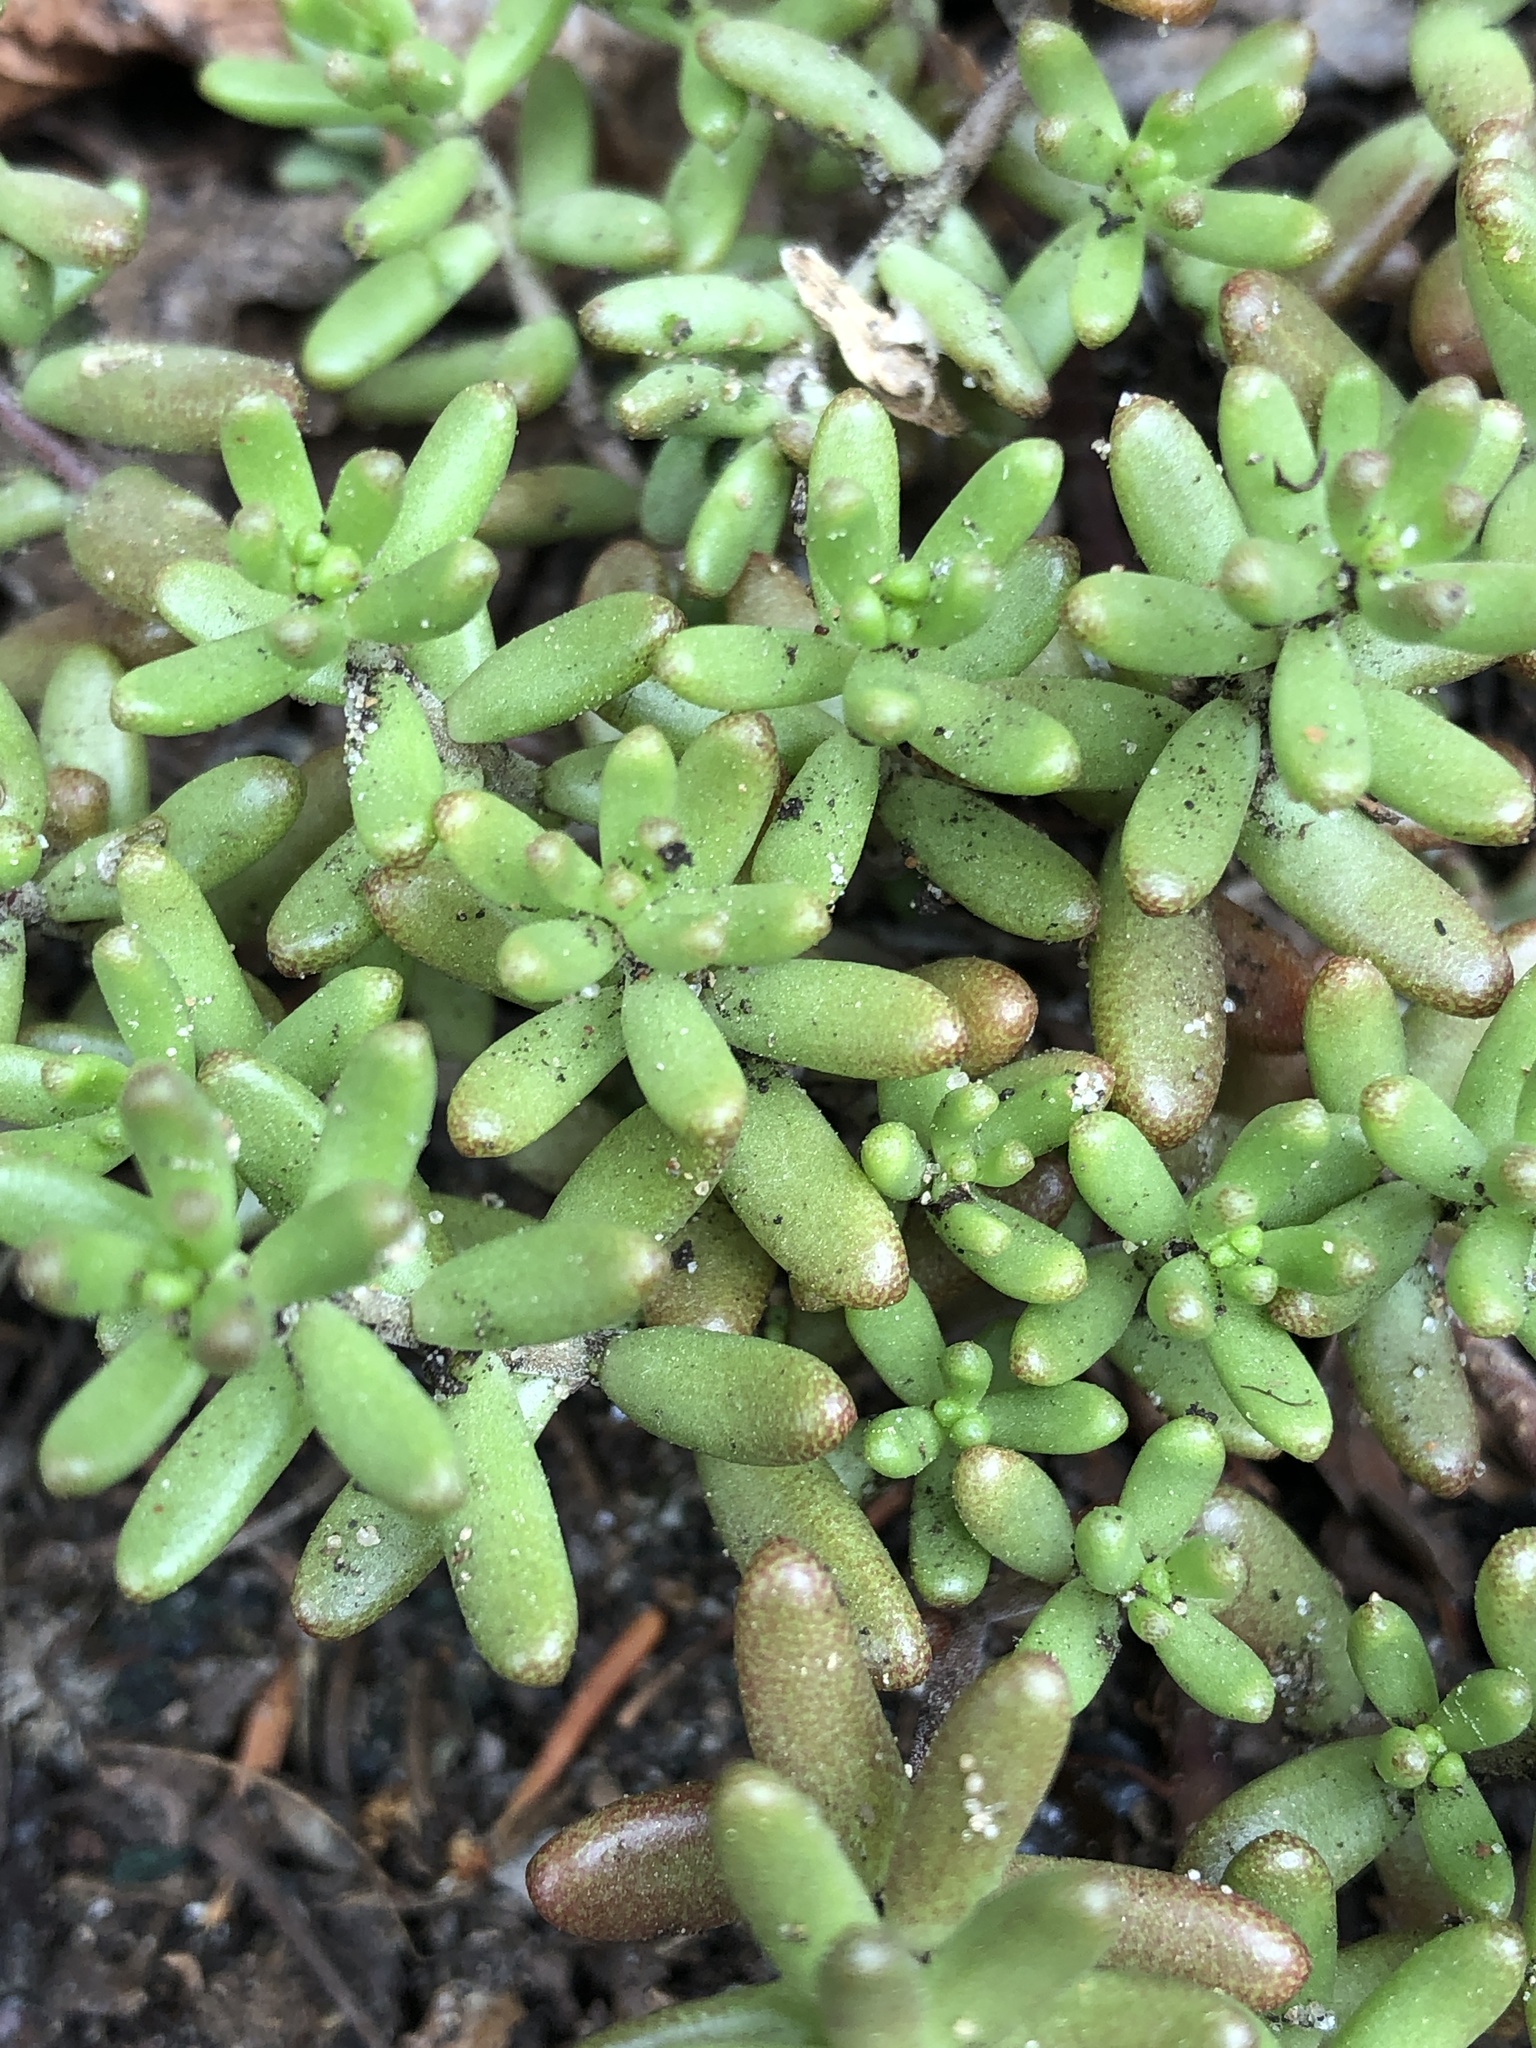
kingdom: Plantae
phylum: Tracheophyta
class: Magnoliopsida
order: Saxifragales
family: Crassulaceae
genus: Sedum
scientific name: Sedum album
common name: White stonecrop
